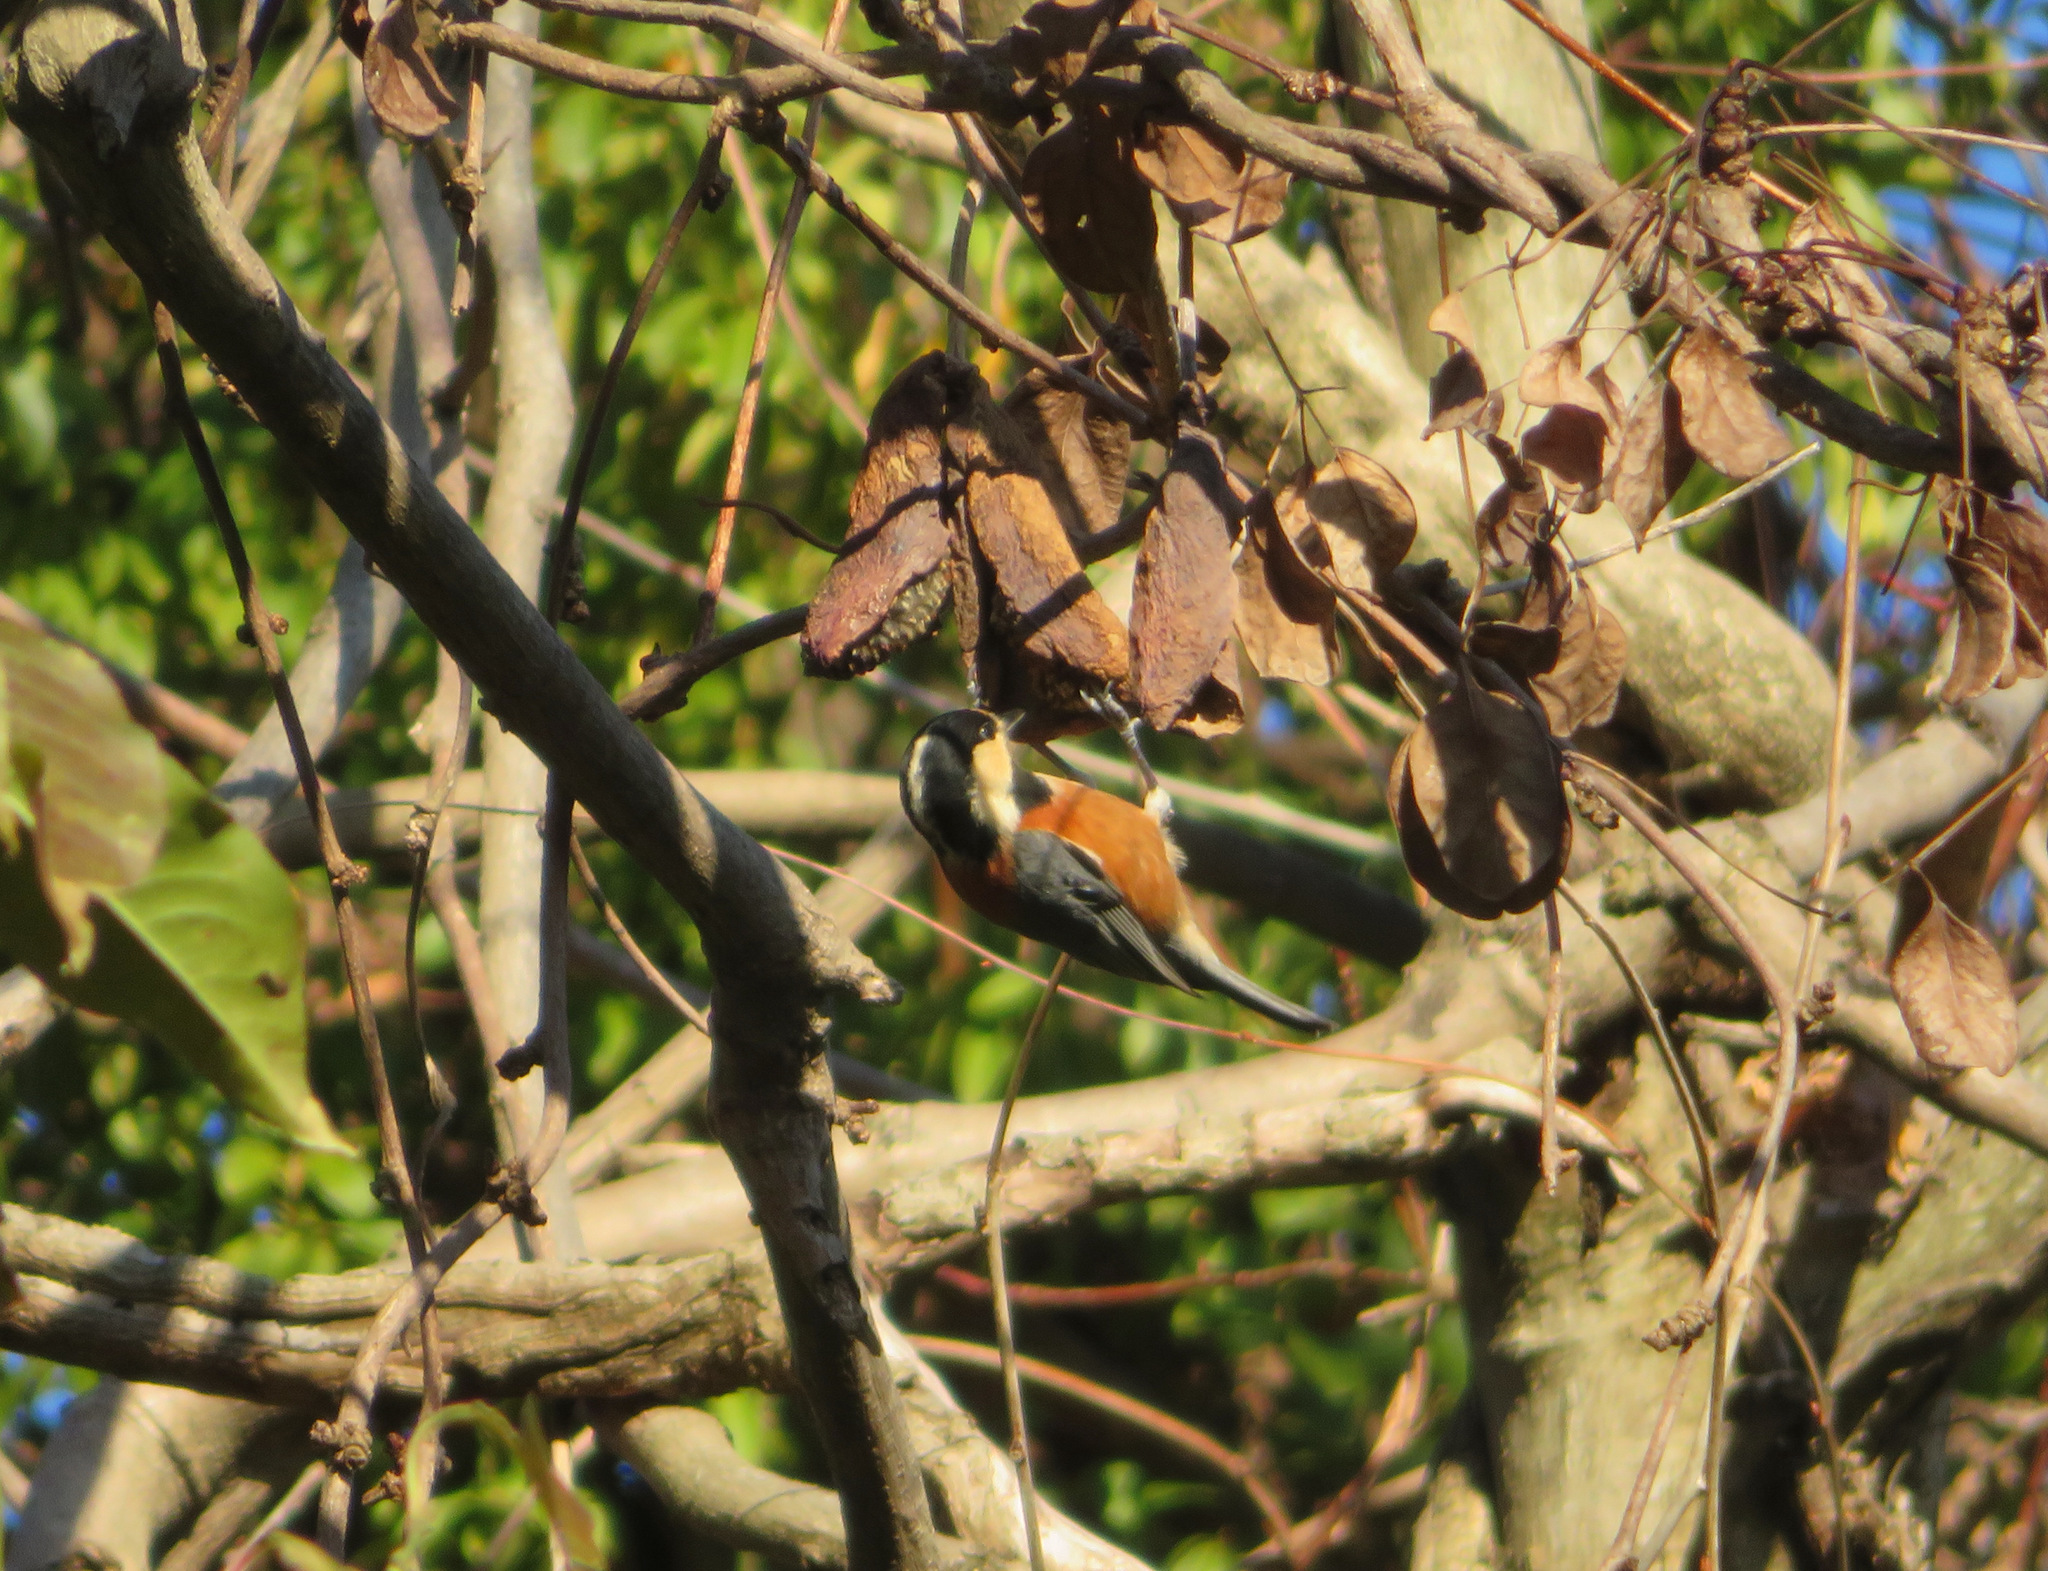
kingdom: Animalia
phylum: Chordata
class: Aves
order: Passeriformes
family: Paridae
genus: Poecile
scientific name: Poecile varius
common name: Varied tit
